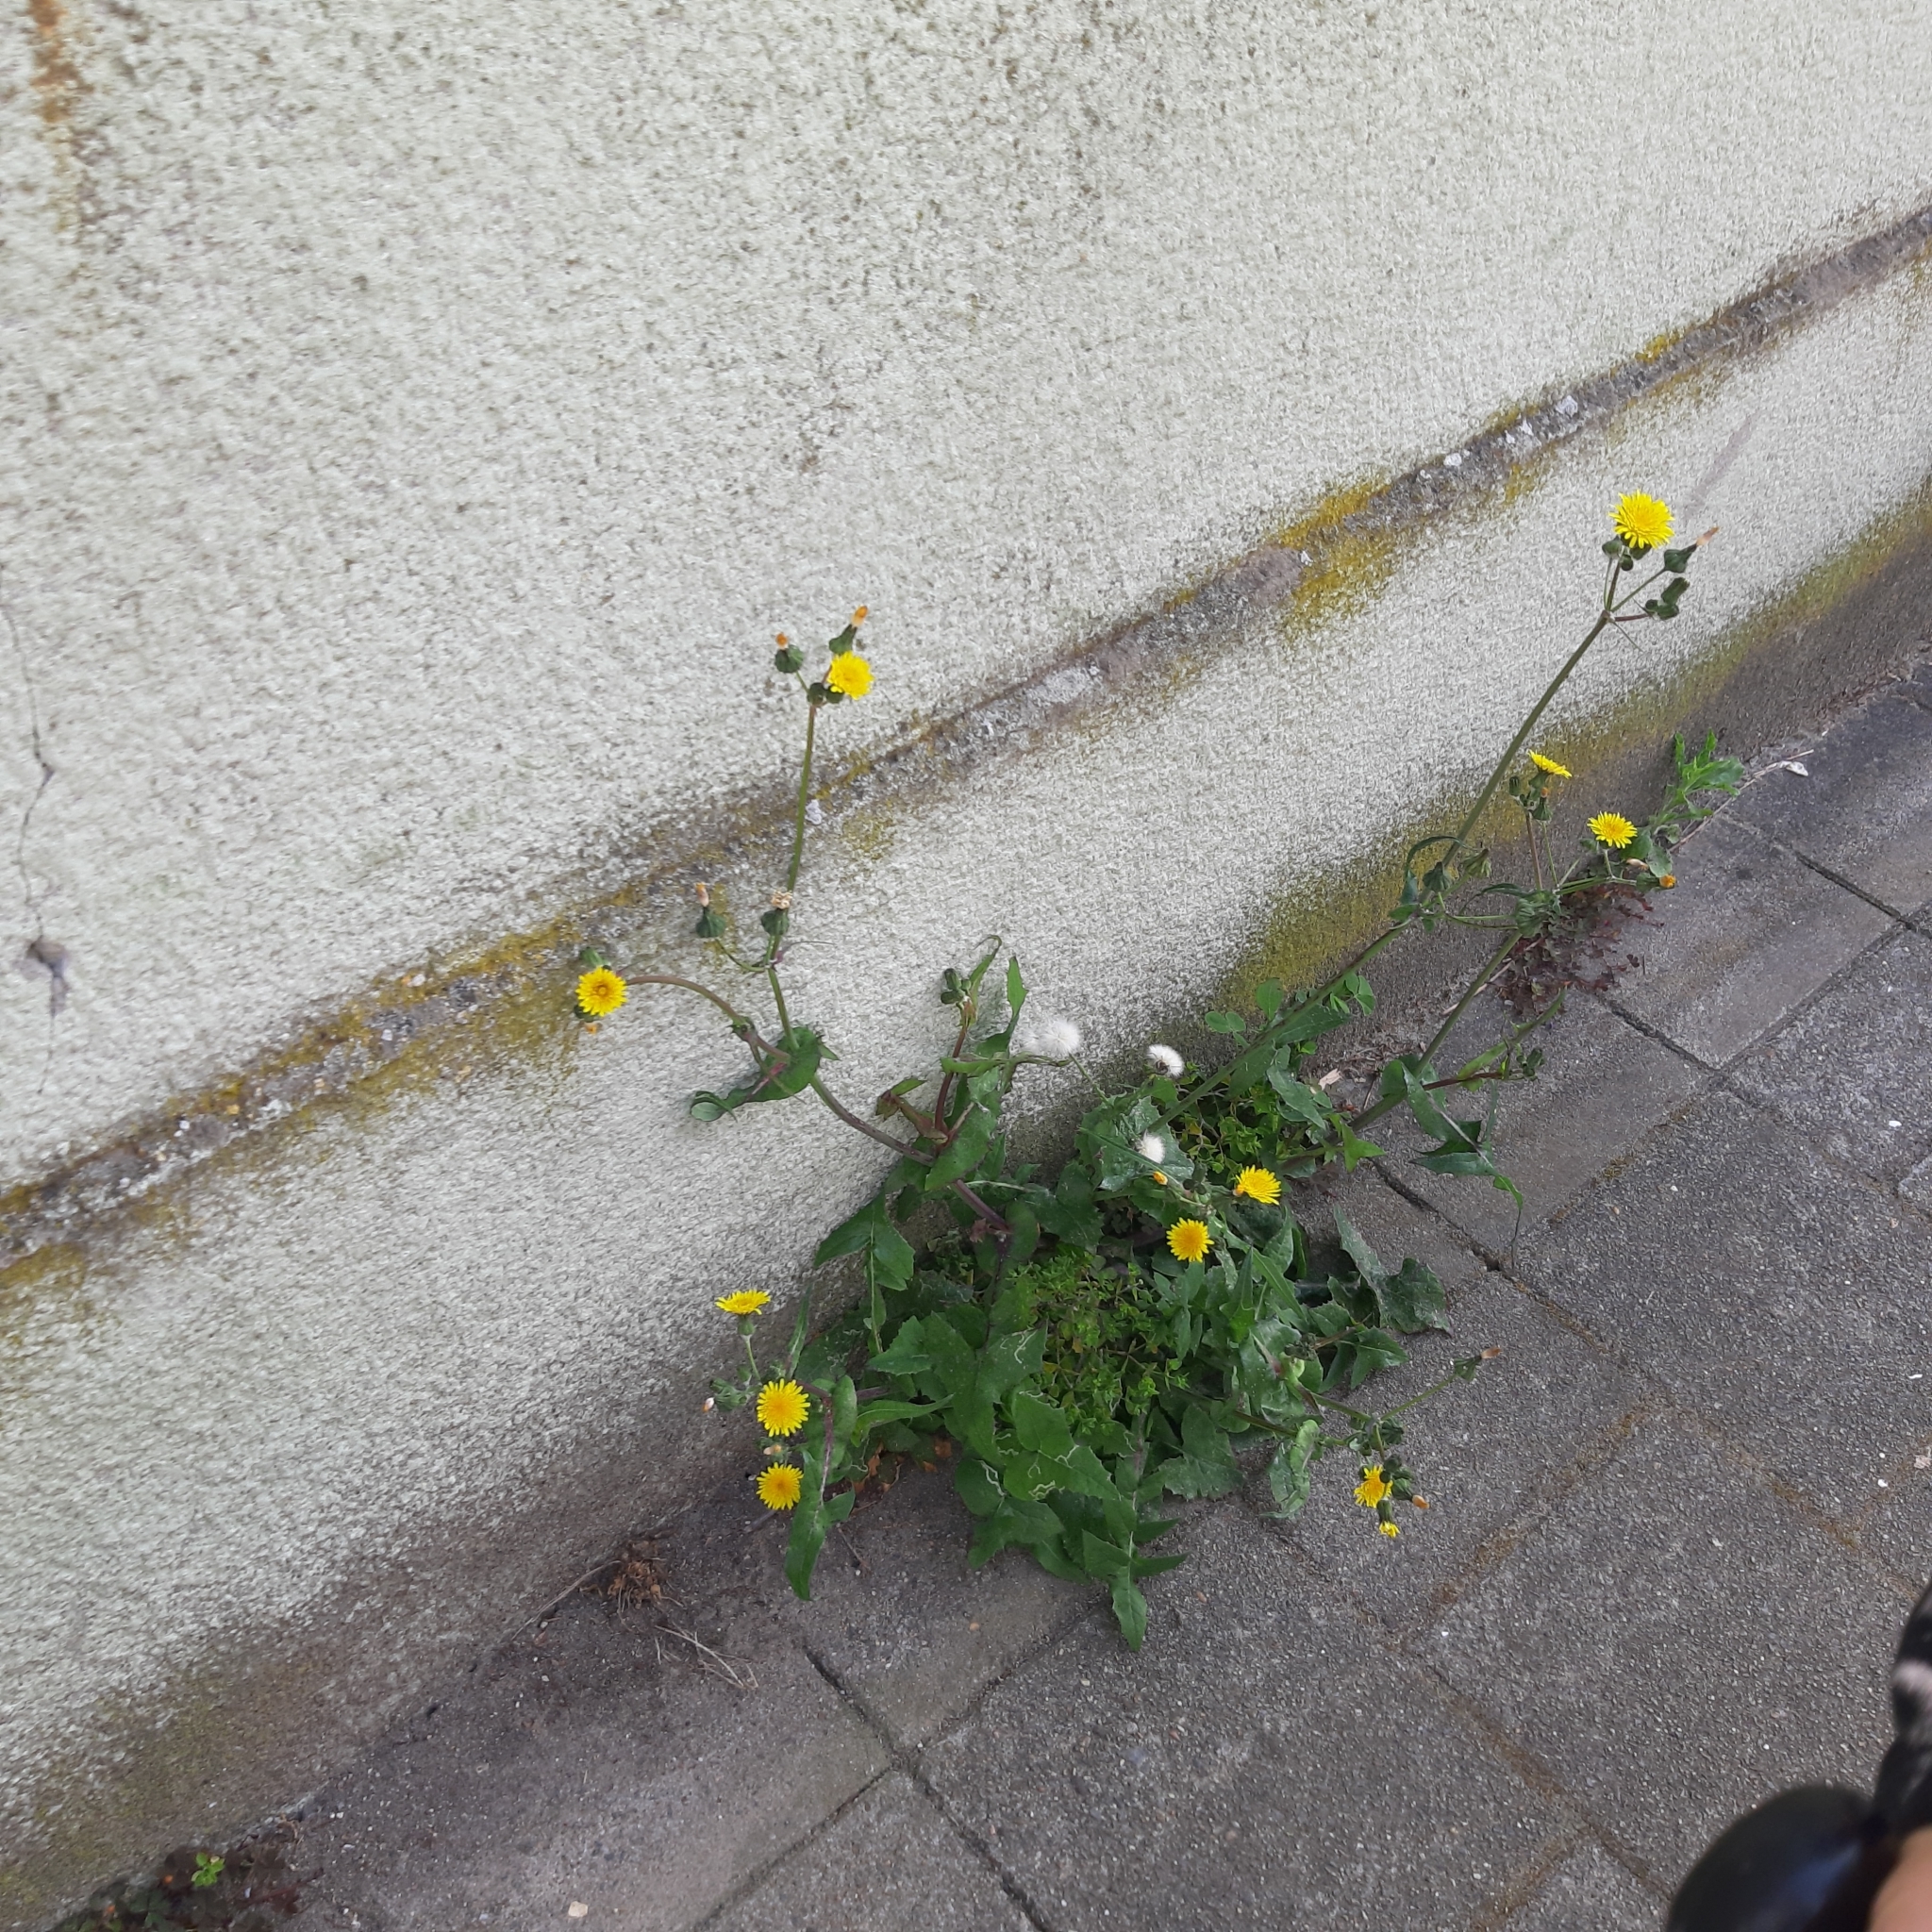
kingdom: Plantae
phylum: Tracheophyta
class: Magnoliopsida
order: Asterales
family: Asteraceae
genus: Sonchus
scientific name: Sonchus oleraceus
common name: Common sowthistle
